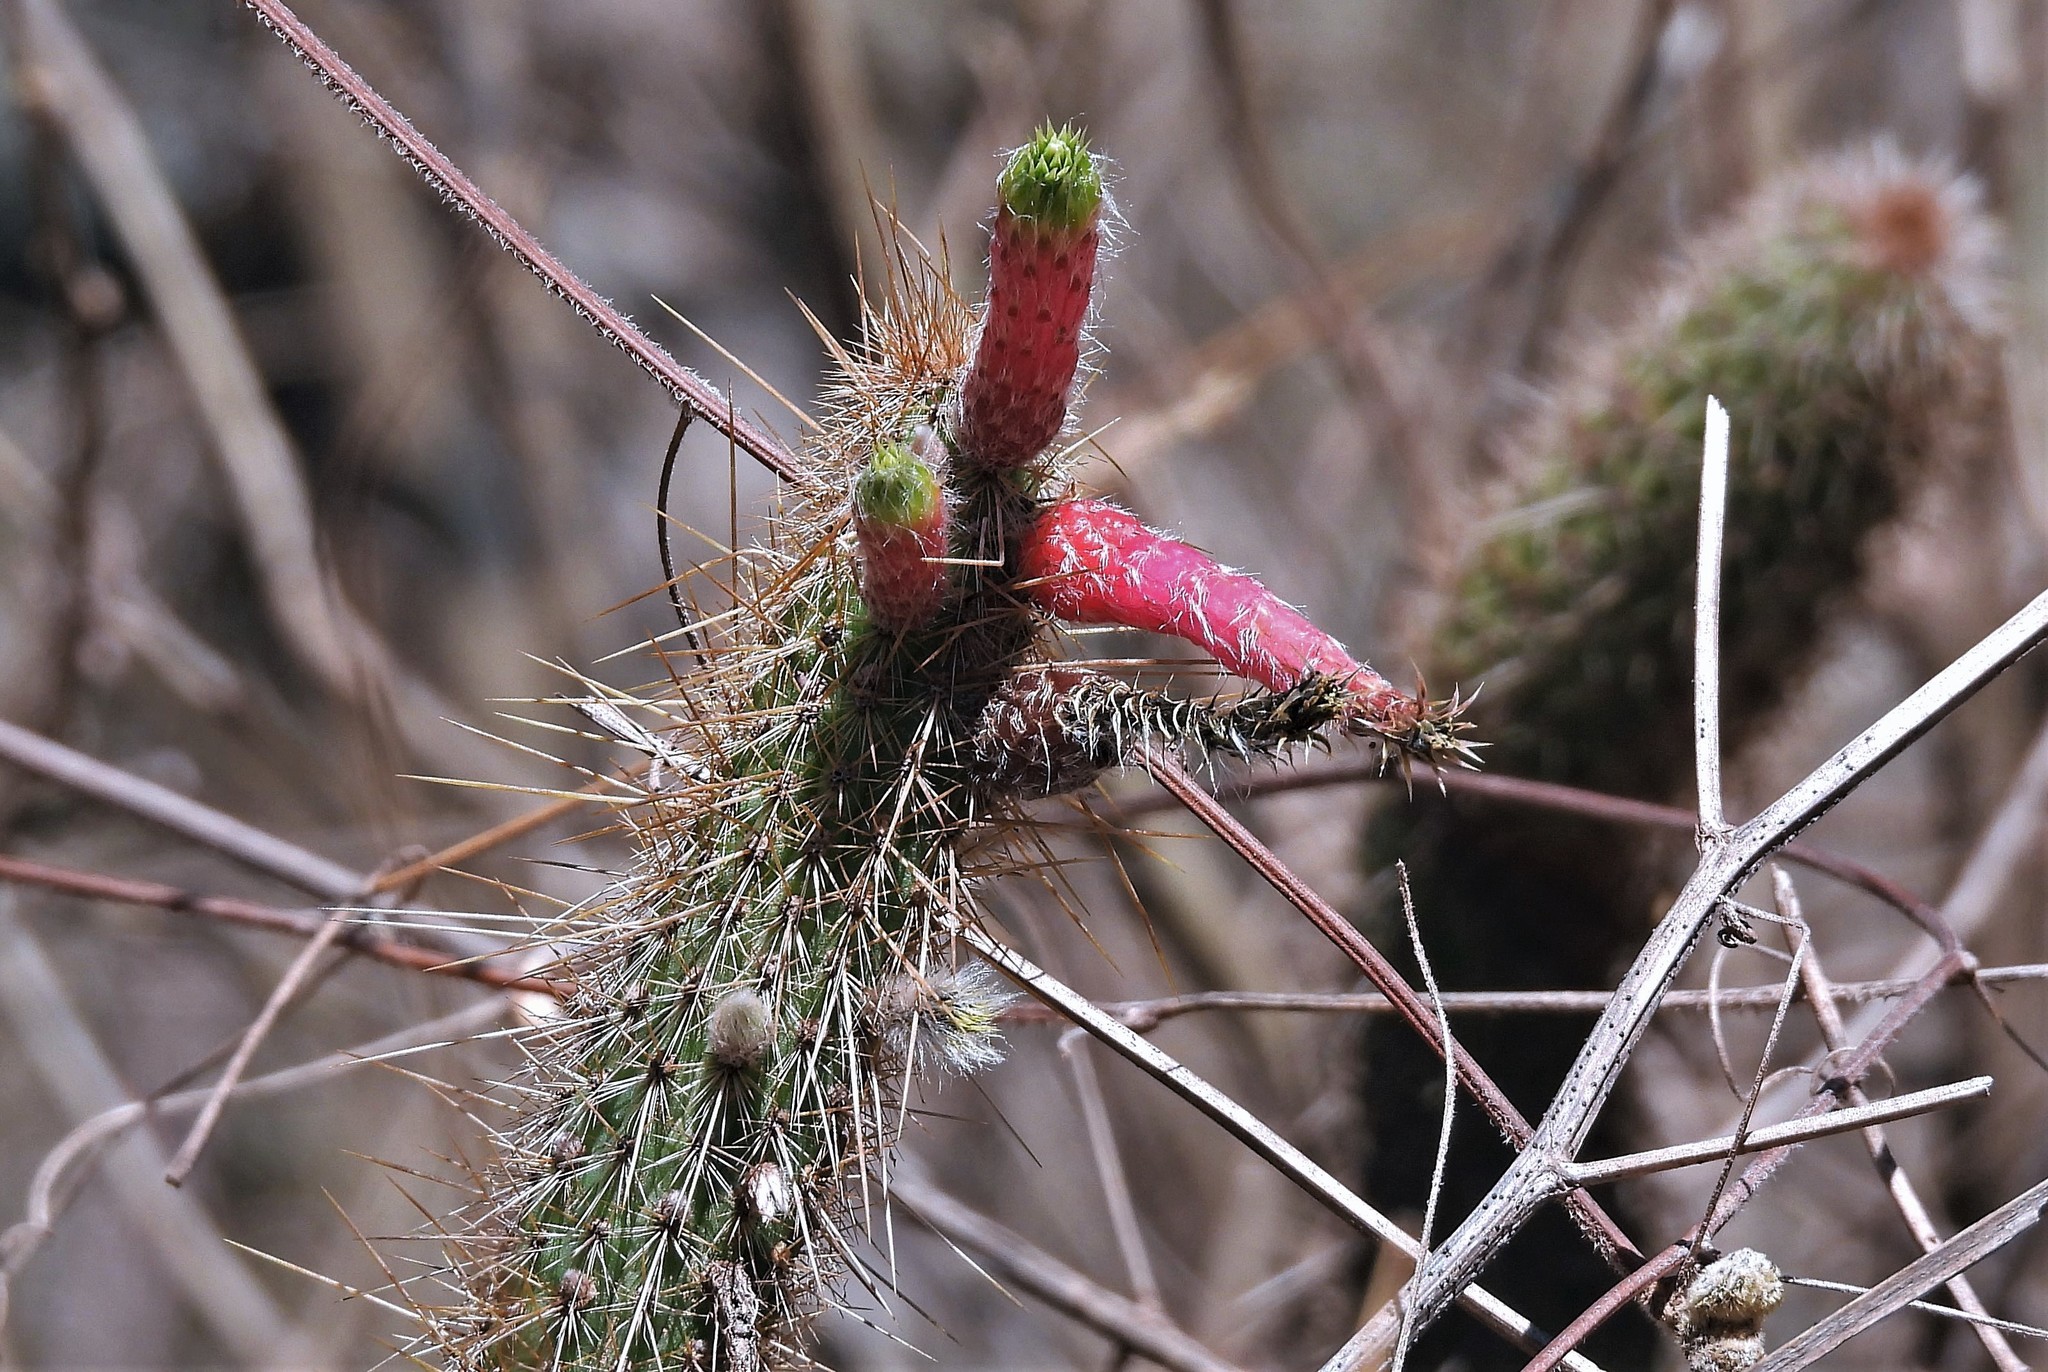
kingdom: Plantae
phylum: Tracheophyta
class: Magnoliopsida
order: Caryophyllales
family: Cactaceae
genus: Cleistocactus
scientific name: Cleistocactus smaragdiflorus
